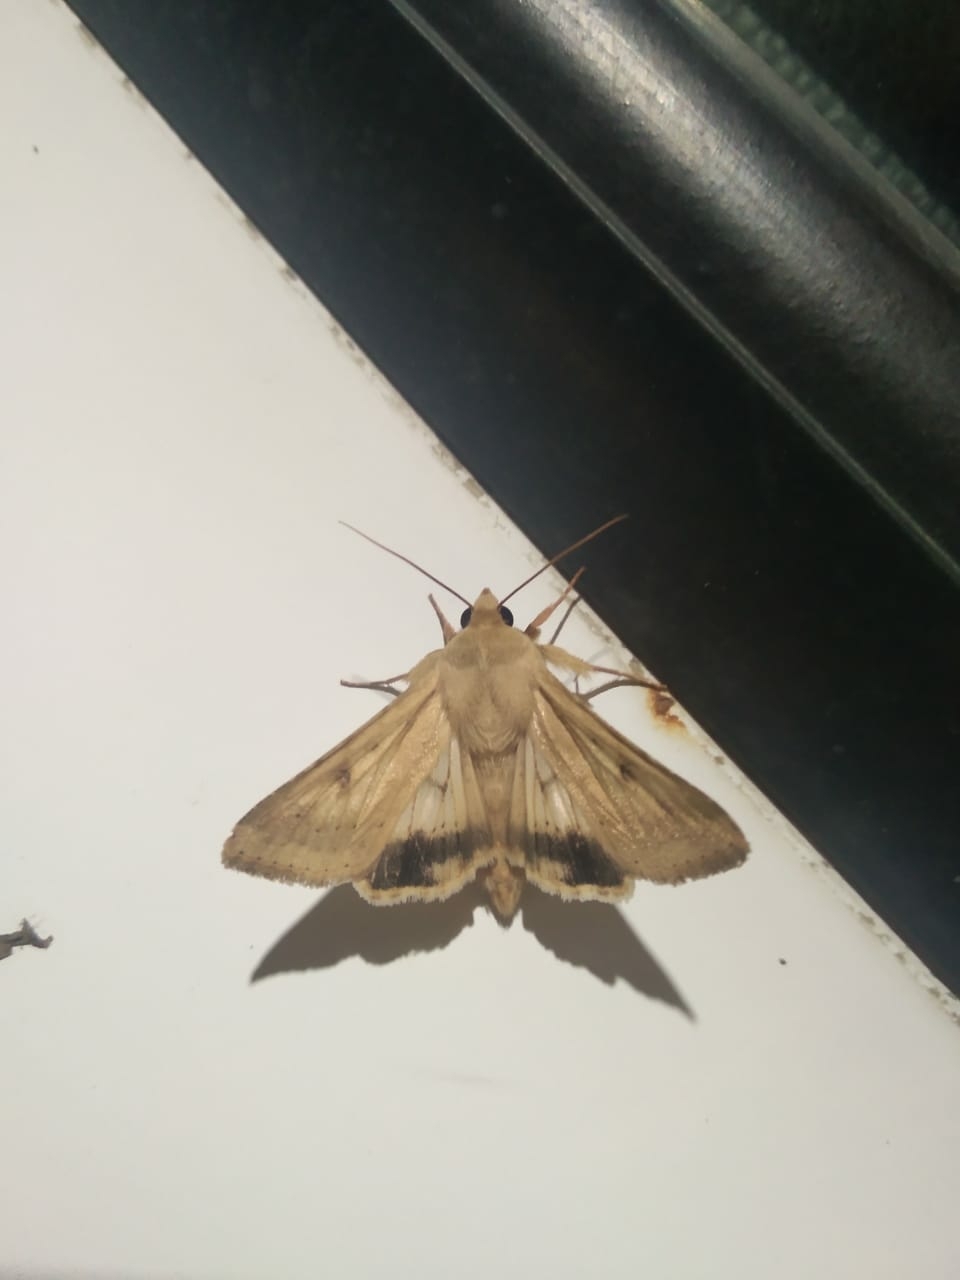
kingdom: Animalia
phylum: Arthropoda
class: Insecta
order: Lepidoptera
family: Noctuidae
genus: Helicoverpa
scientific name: Helicoverpa armigera
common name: Cotton bollworm
